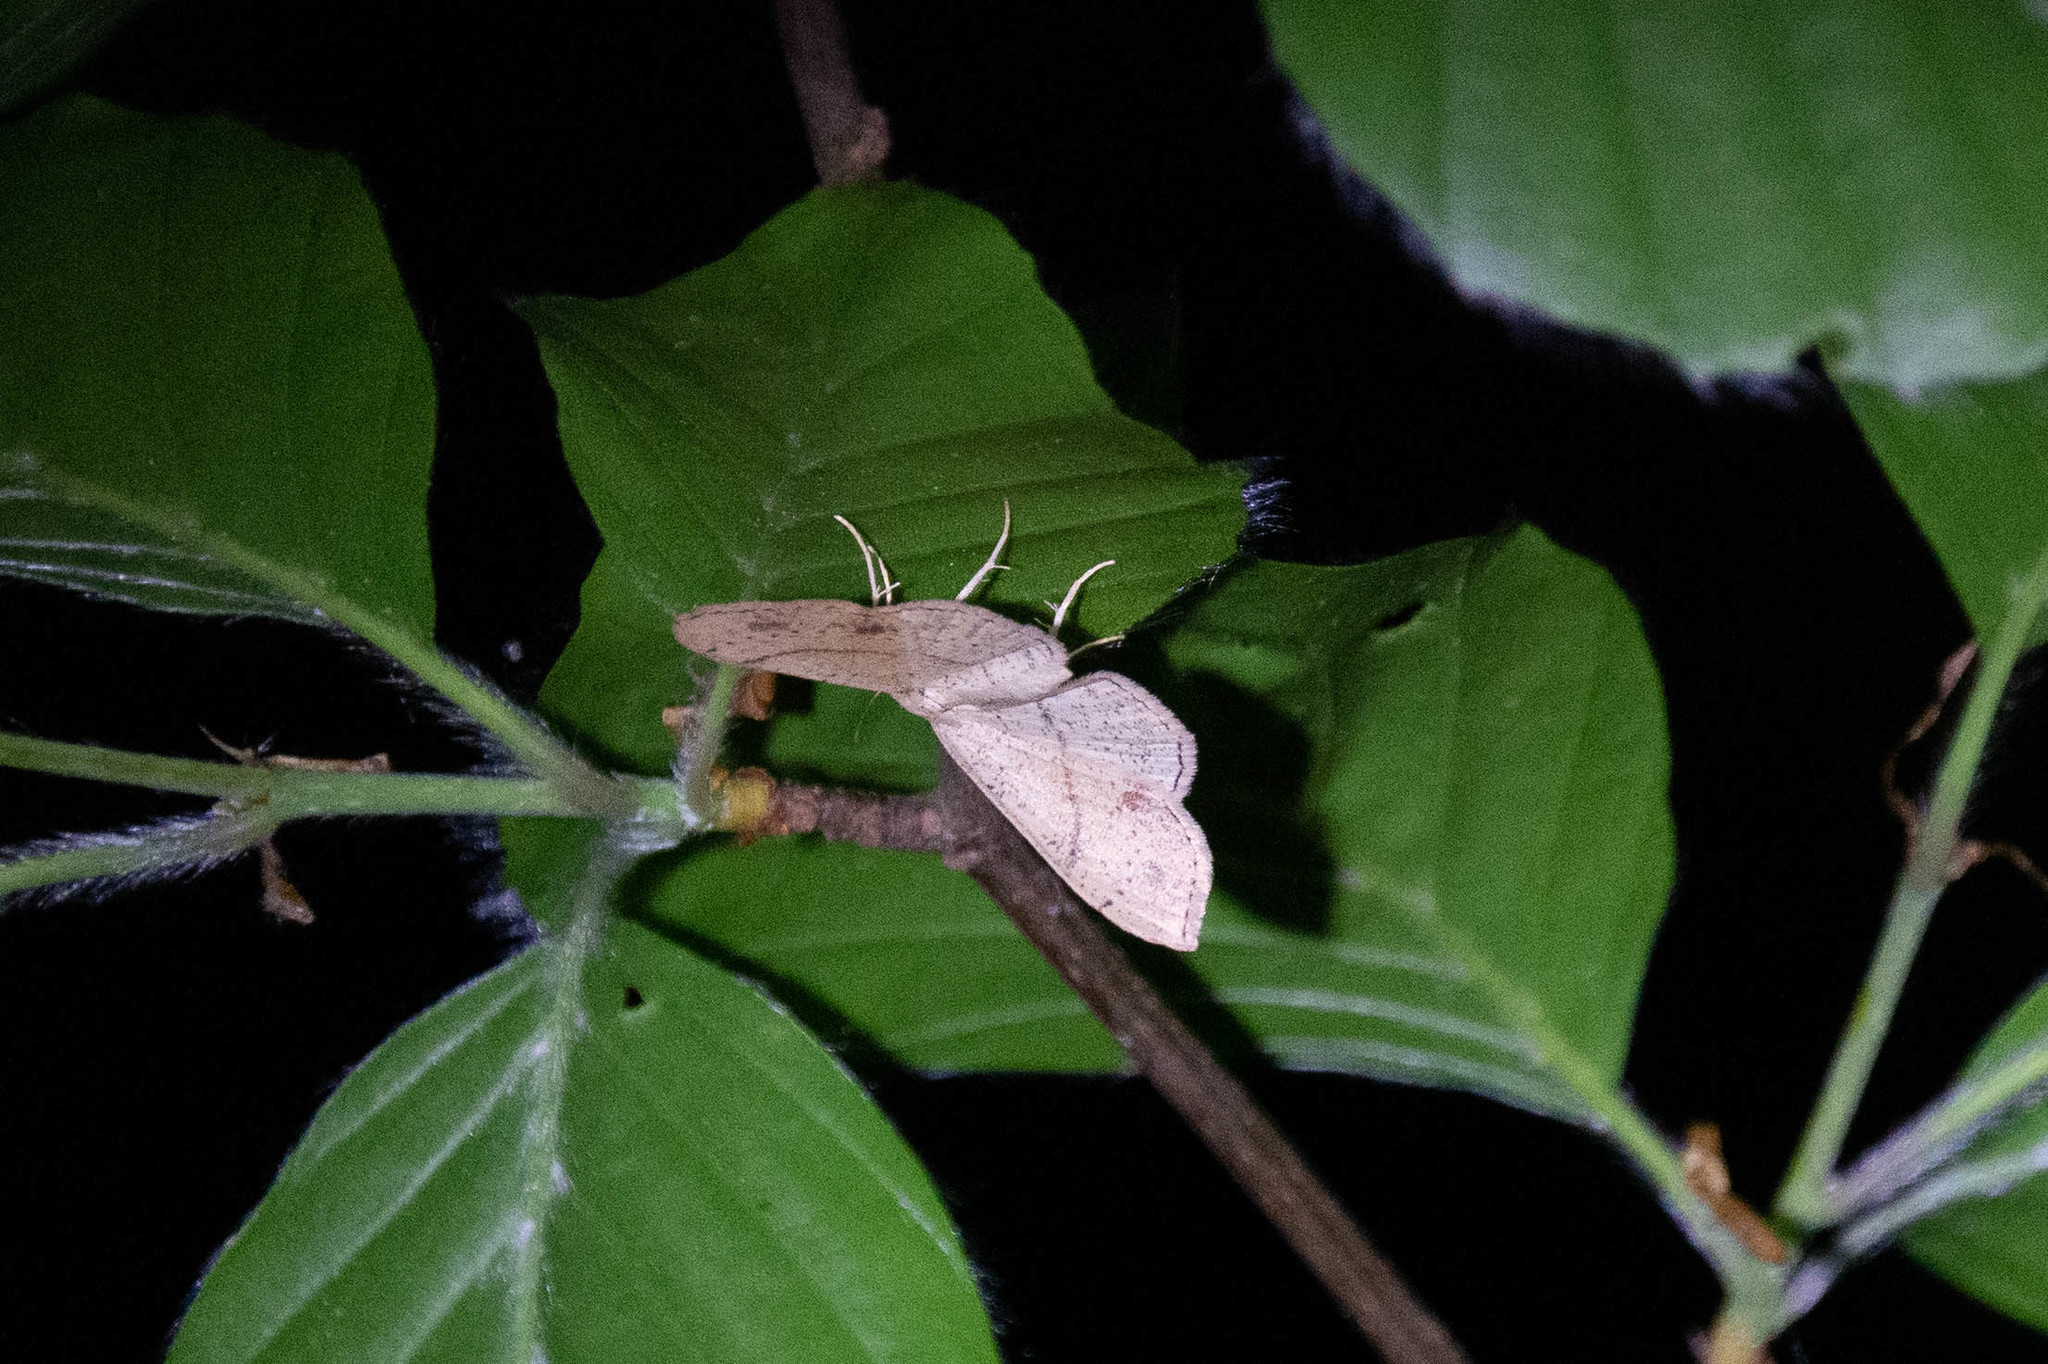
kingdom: Animalia
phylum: Arthropoda
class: Insecta
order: Lepidoptera
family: Geometridae
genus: Cyclophora
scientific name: Cyclophora punctaria
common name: Maiden's blush
